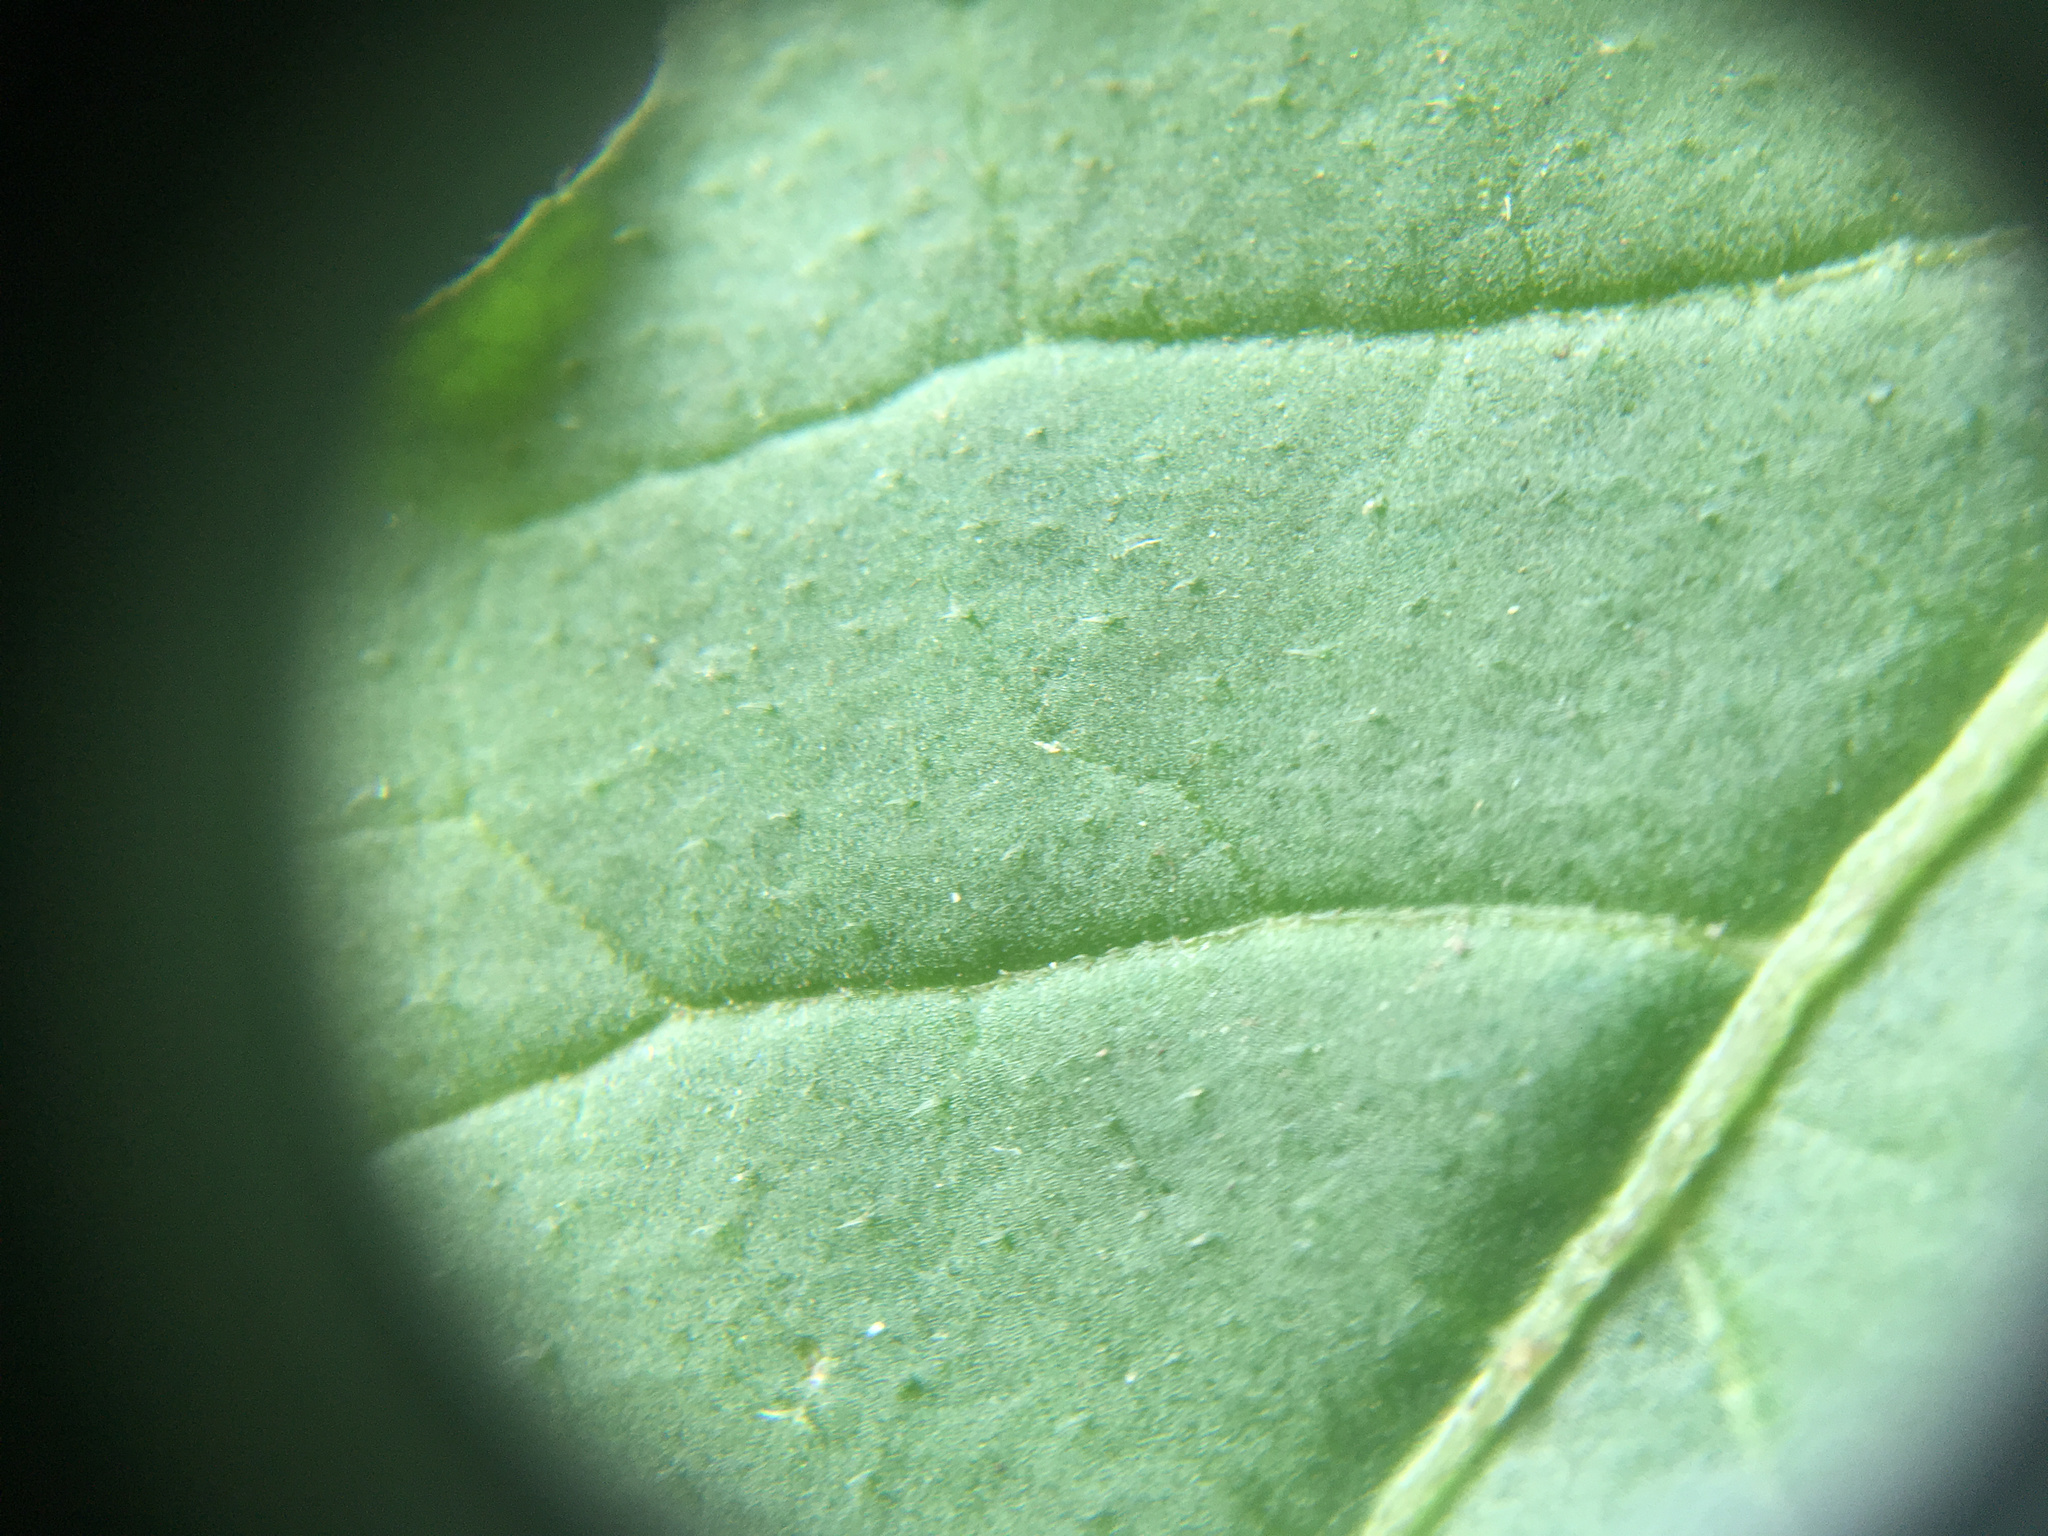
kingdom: Plantae
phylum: Tracheophyta
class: Magnoliopsida
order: Solanales
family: Solanaceae
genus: Solanum
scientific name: Solanum nigrum
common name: Black nightshade
